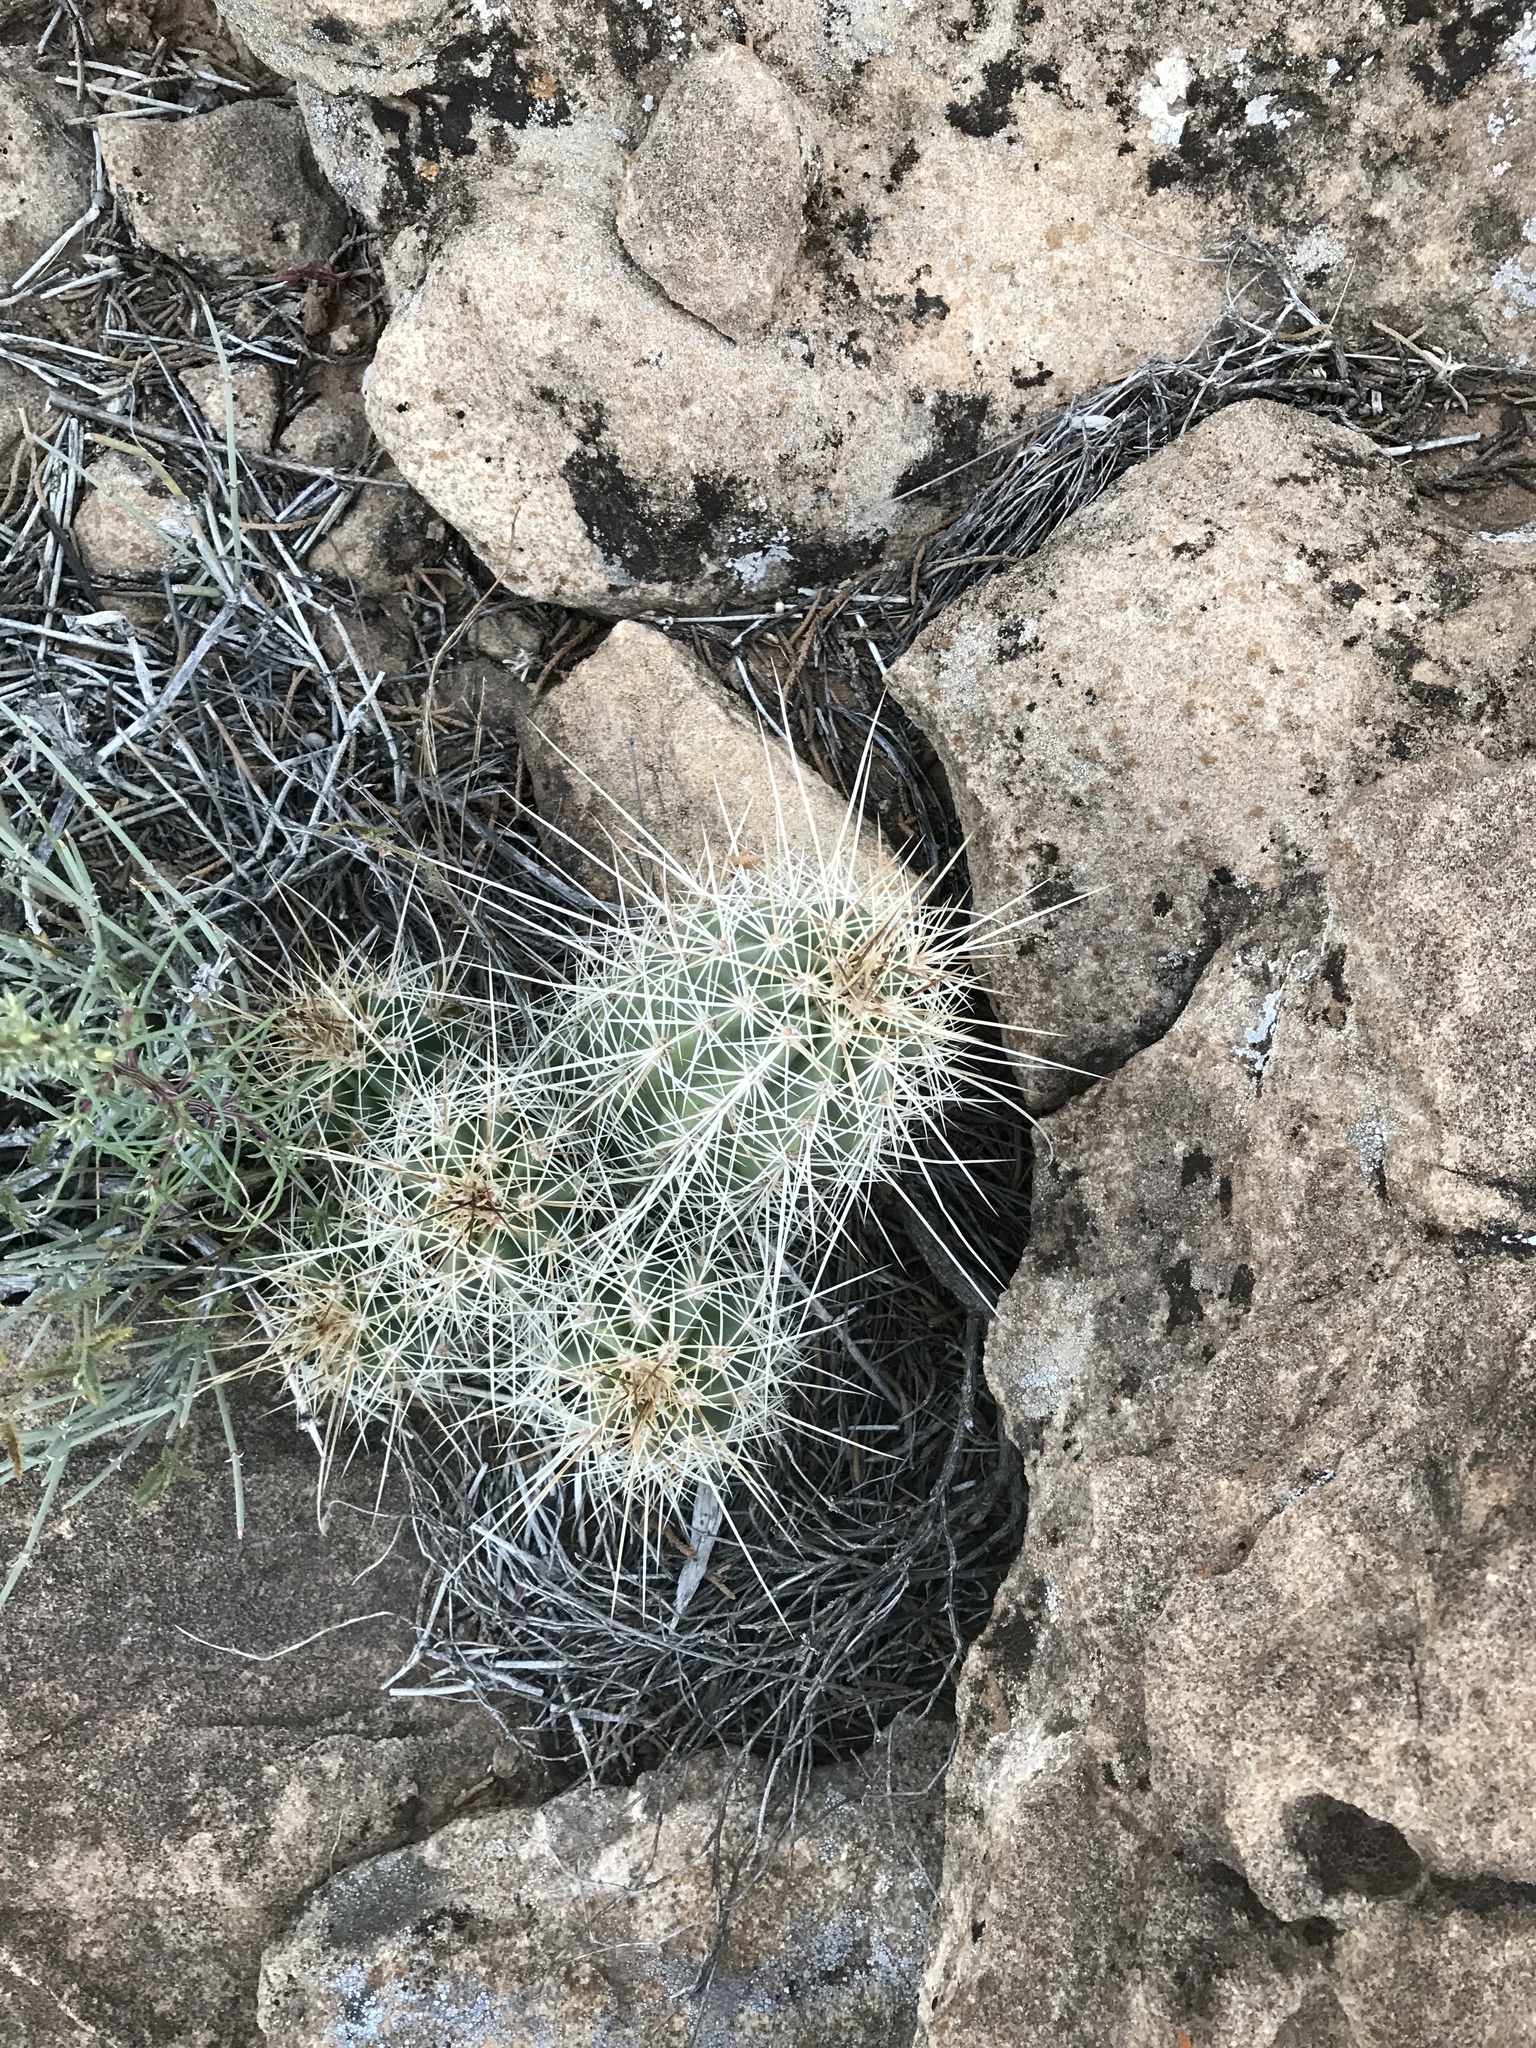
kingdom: Plantae
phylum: Tracheophyta
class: Magnoliopsida
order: Caryophyllales
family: Cactaceae
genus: Echinocereus
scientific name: Echinocereus coccineus
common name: Scarlet hedgehog cactus
